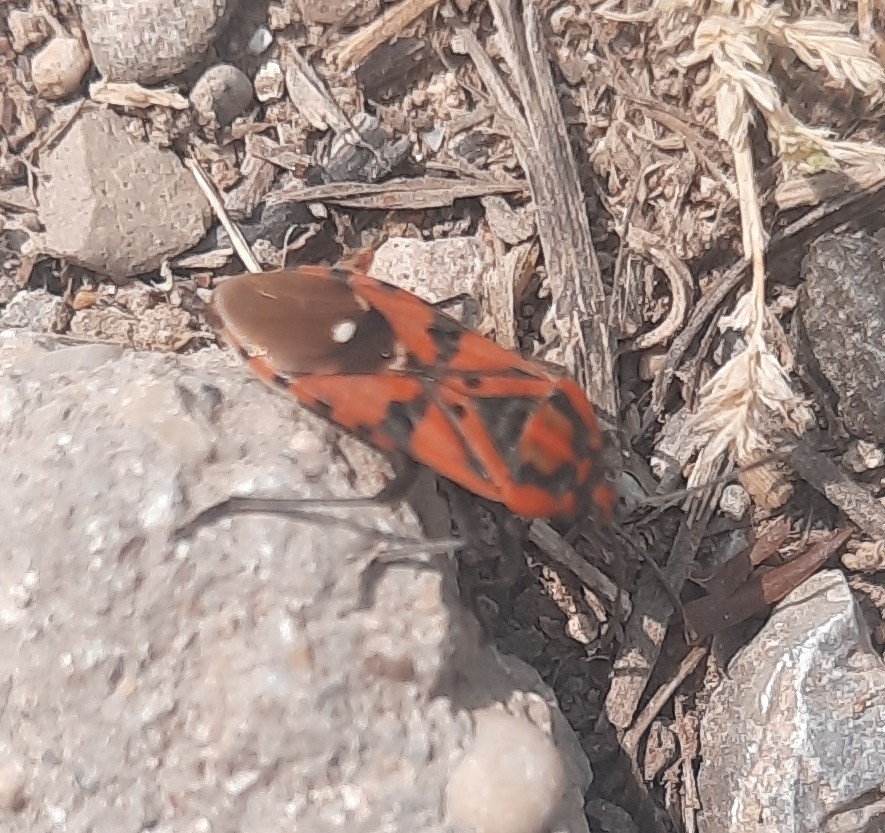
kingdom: Animalia
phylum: Arthropoda
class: Insecta
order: Hemiptera
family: Lygaeidae
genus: Spilostethus
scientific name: Spilostethus pandurus
